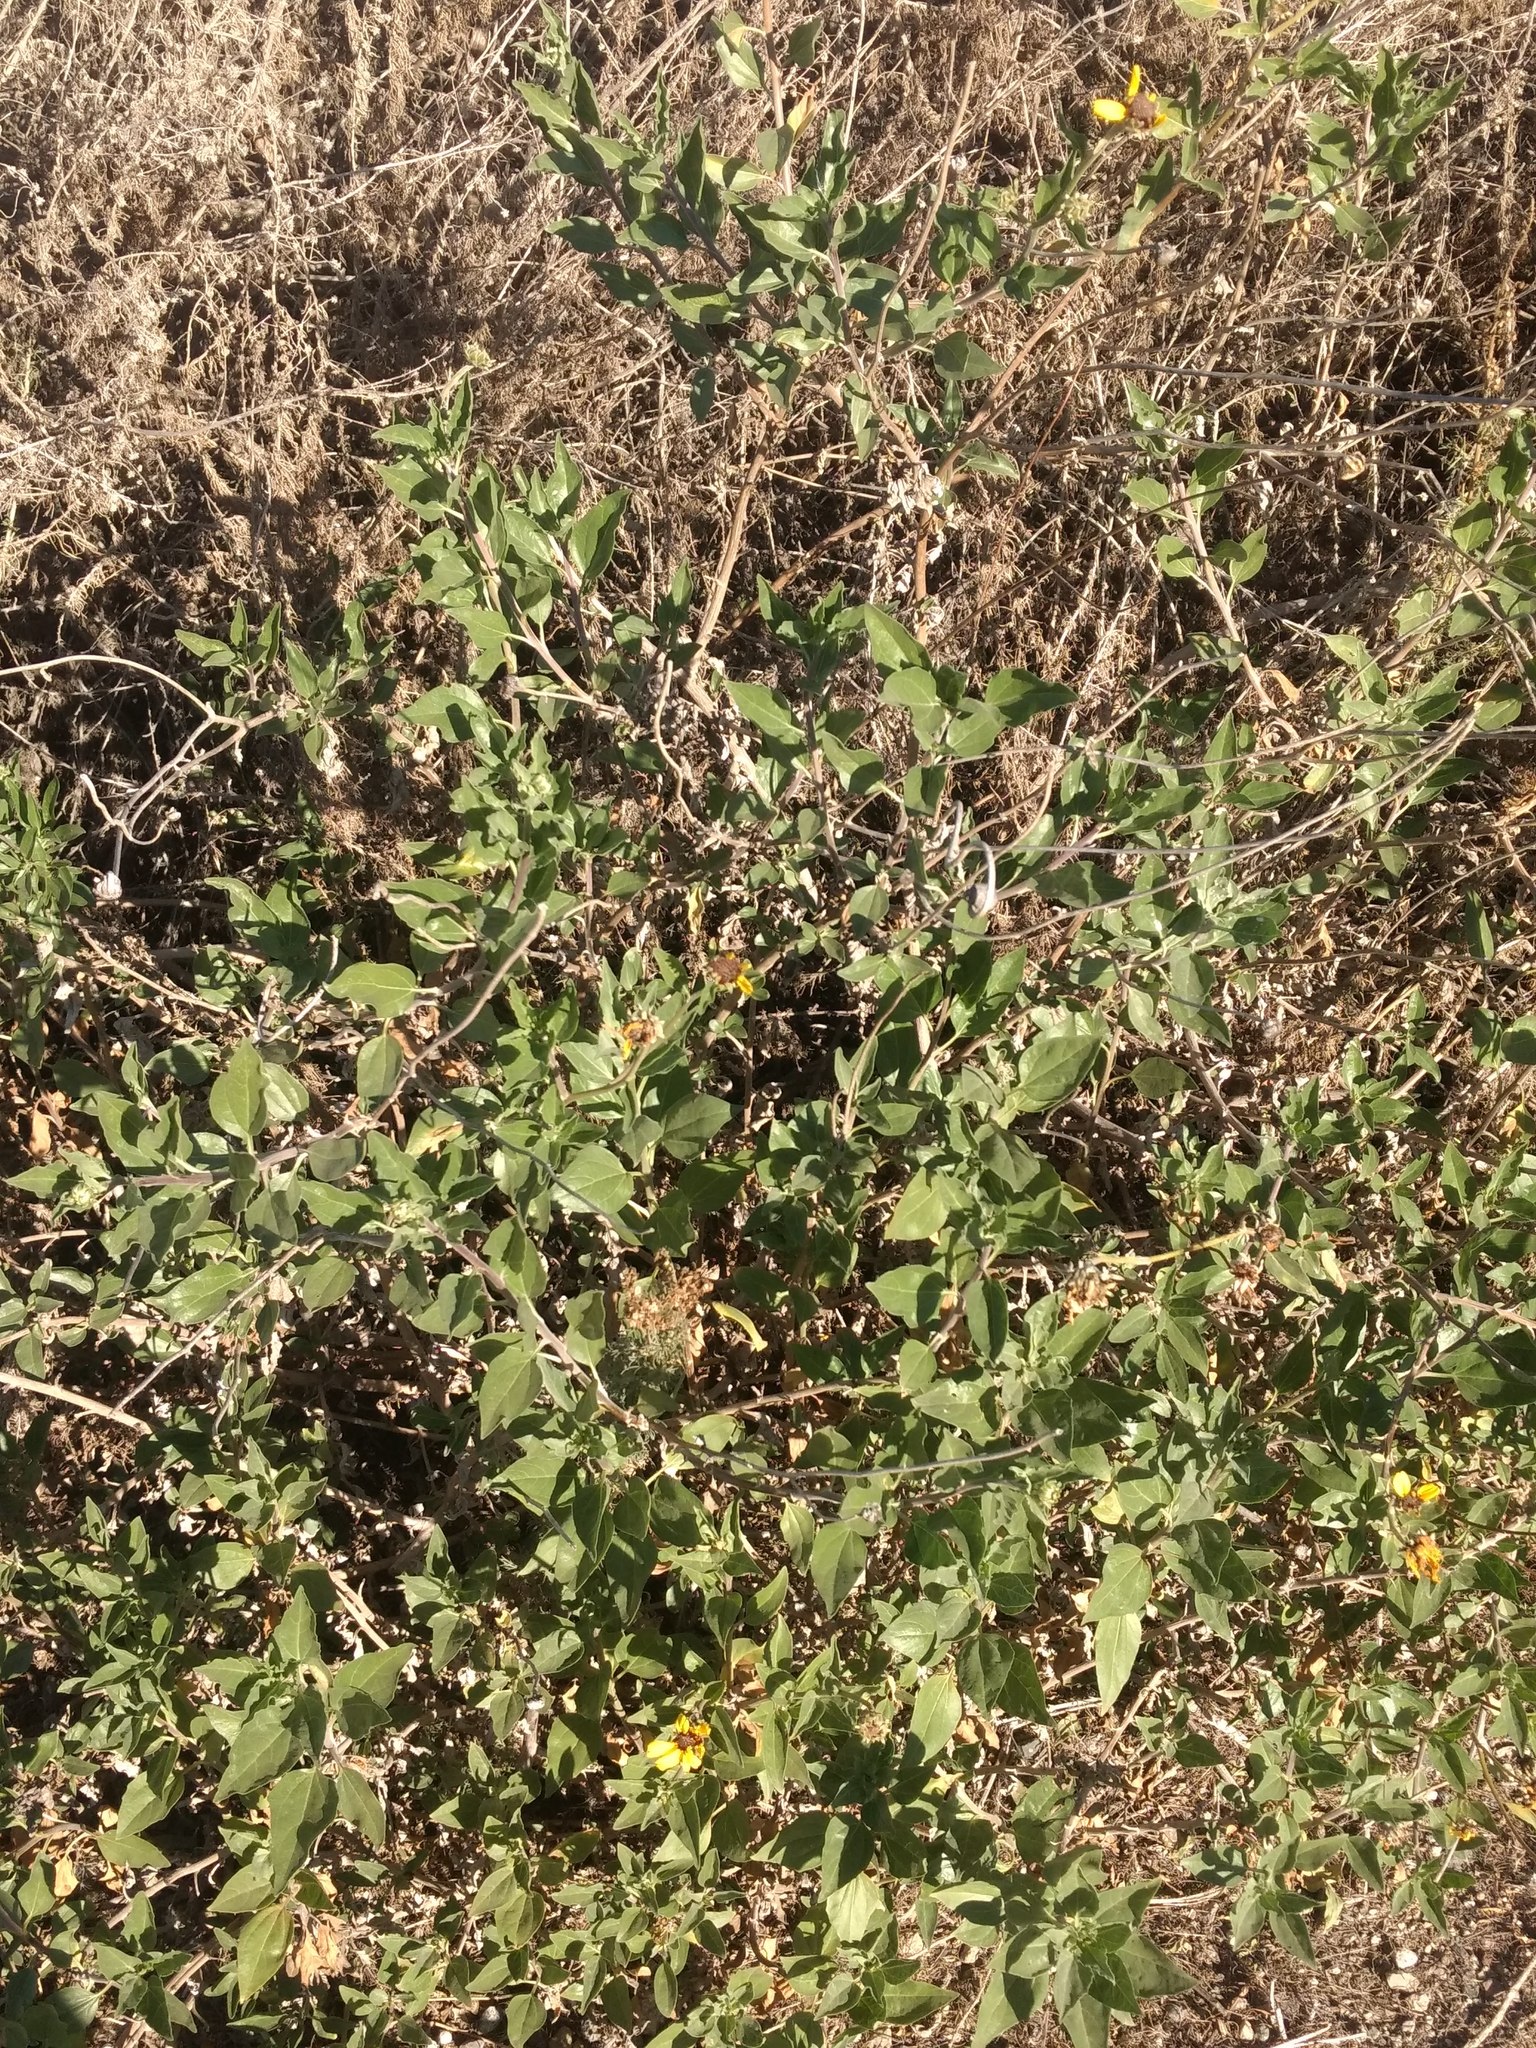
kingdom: Plantae
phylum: Tracheophyta
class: Magnoliopsida
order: Asterales
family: Asteraceae
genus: Encelia
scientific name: Encelia californica
